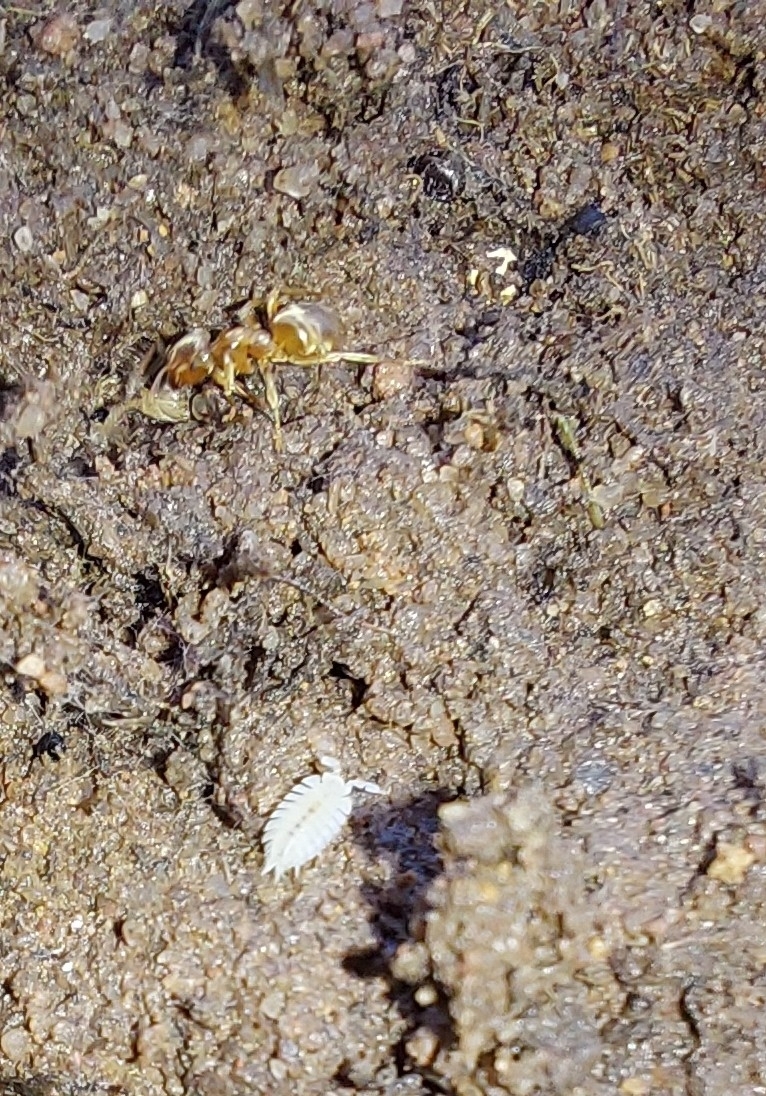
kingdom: Animalia
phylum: Arthropoda
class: Malacostraca
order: Isopoda
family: Platyarthridae
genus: Platyarthrus
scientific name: Platyarthrus hoffmannseggii
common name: Ant woodlouse
